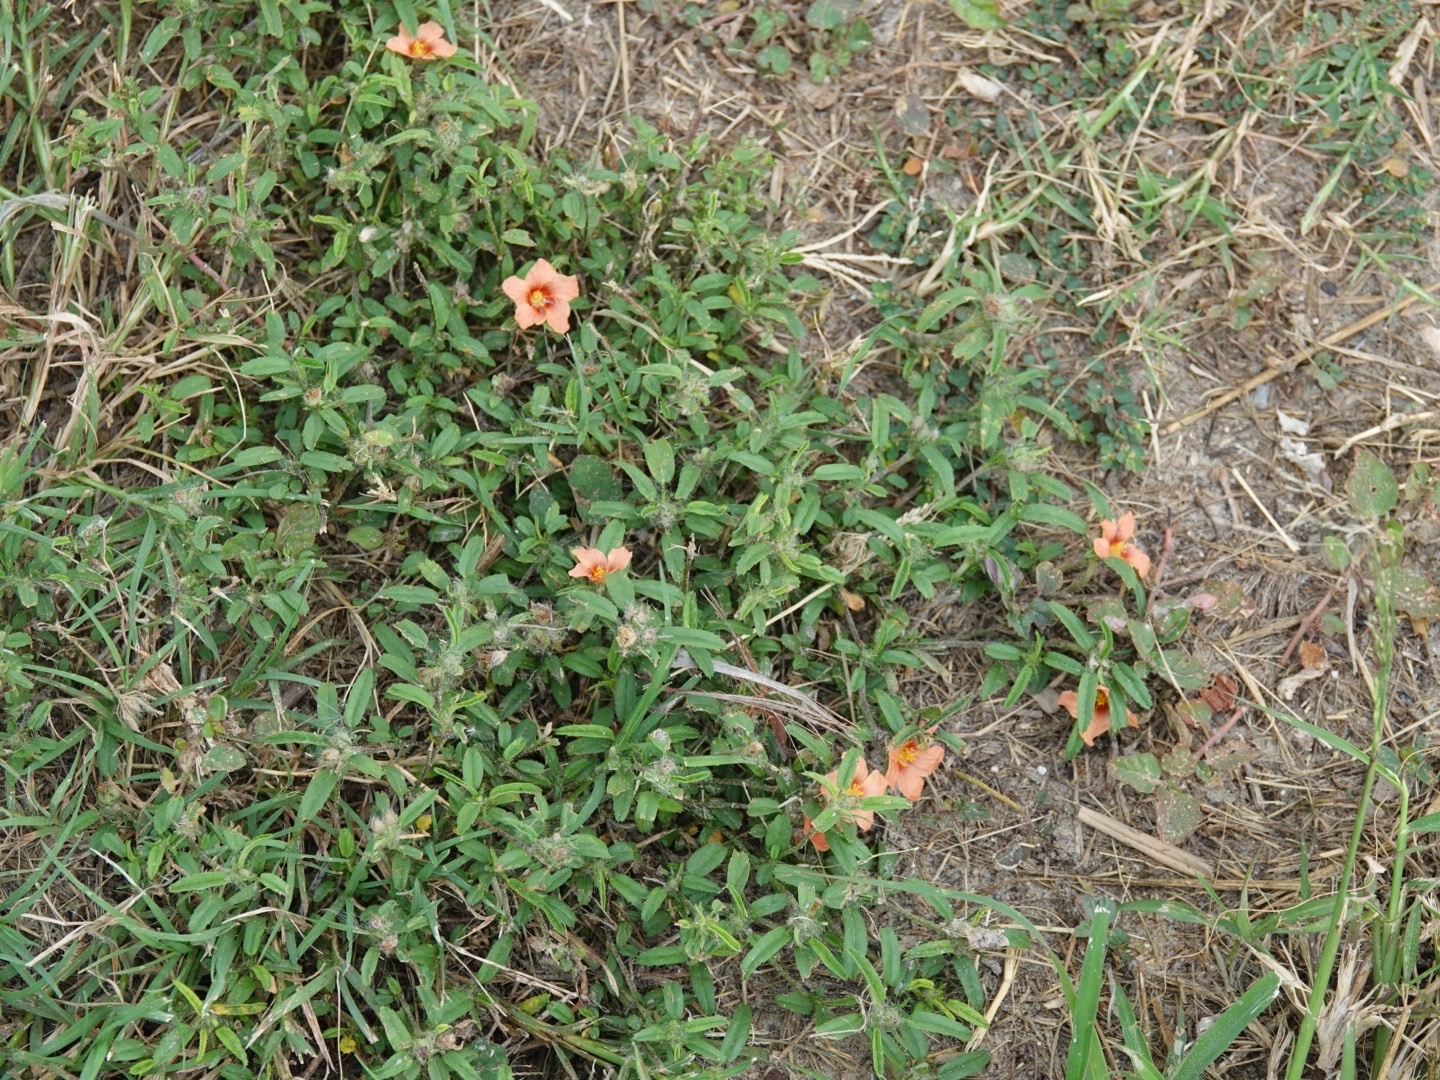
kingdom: Plantae
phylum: Tracheophyta
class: Magnoliopsida
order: Malvales
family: Malvaceae
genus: Sida
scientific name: Sida ciliaris
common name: Bracted fanpetals
